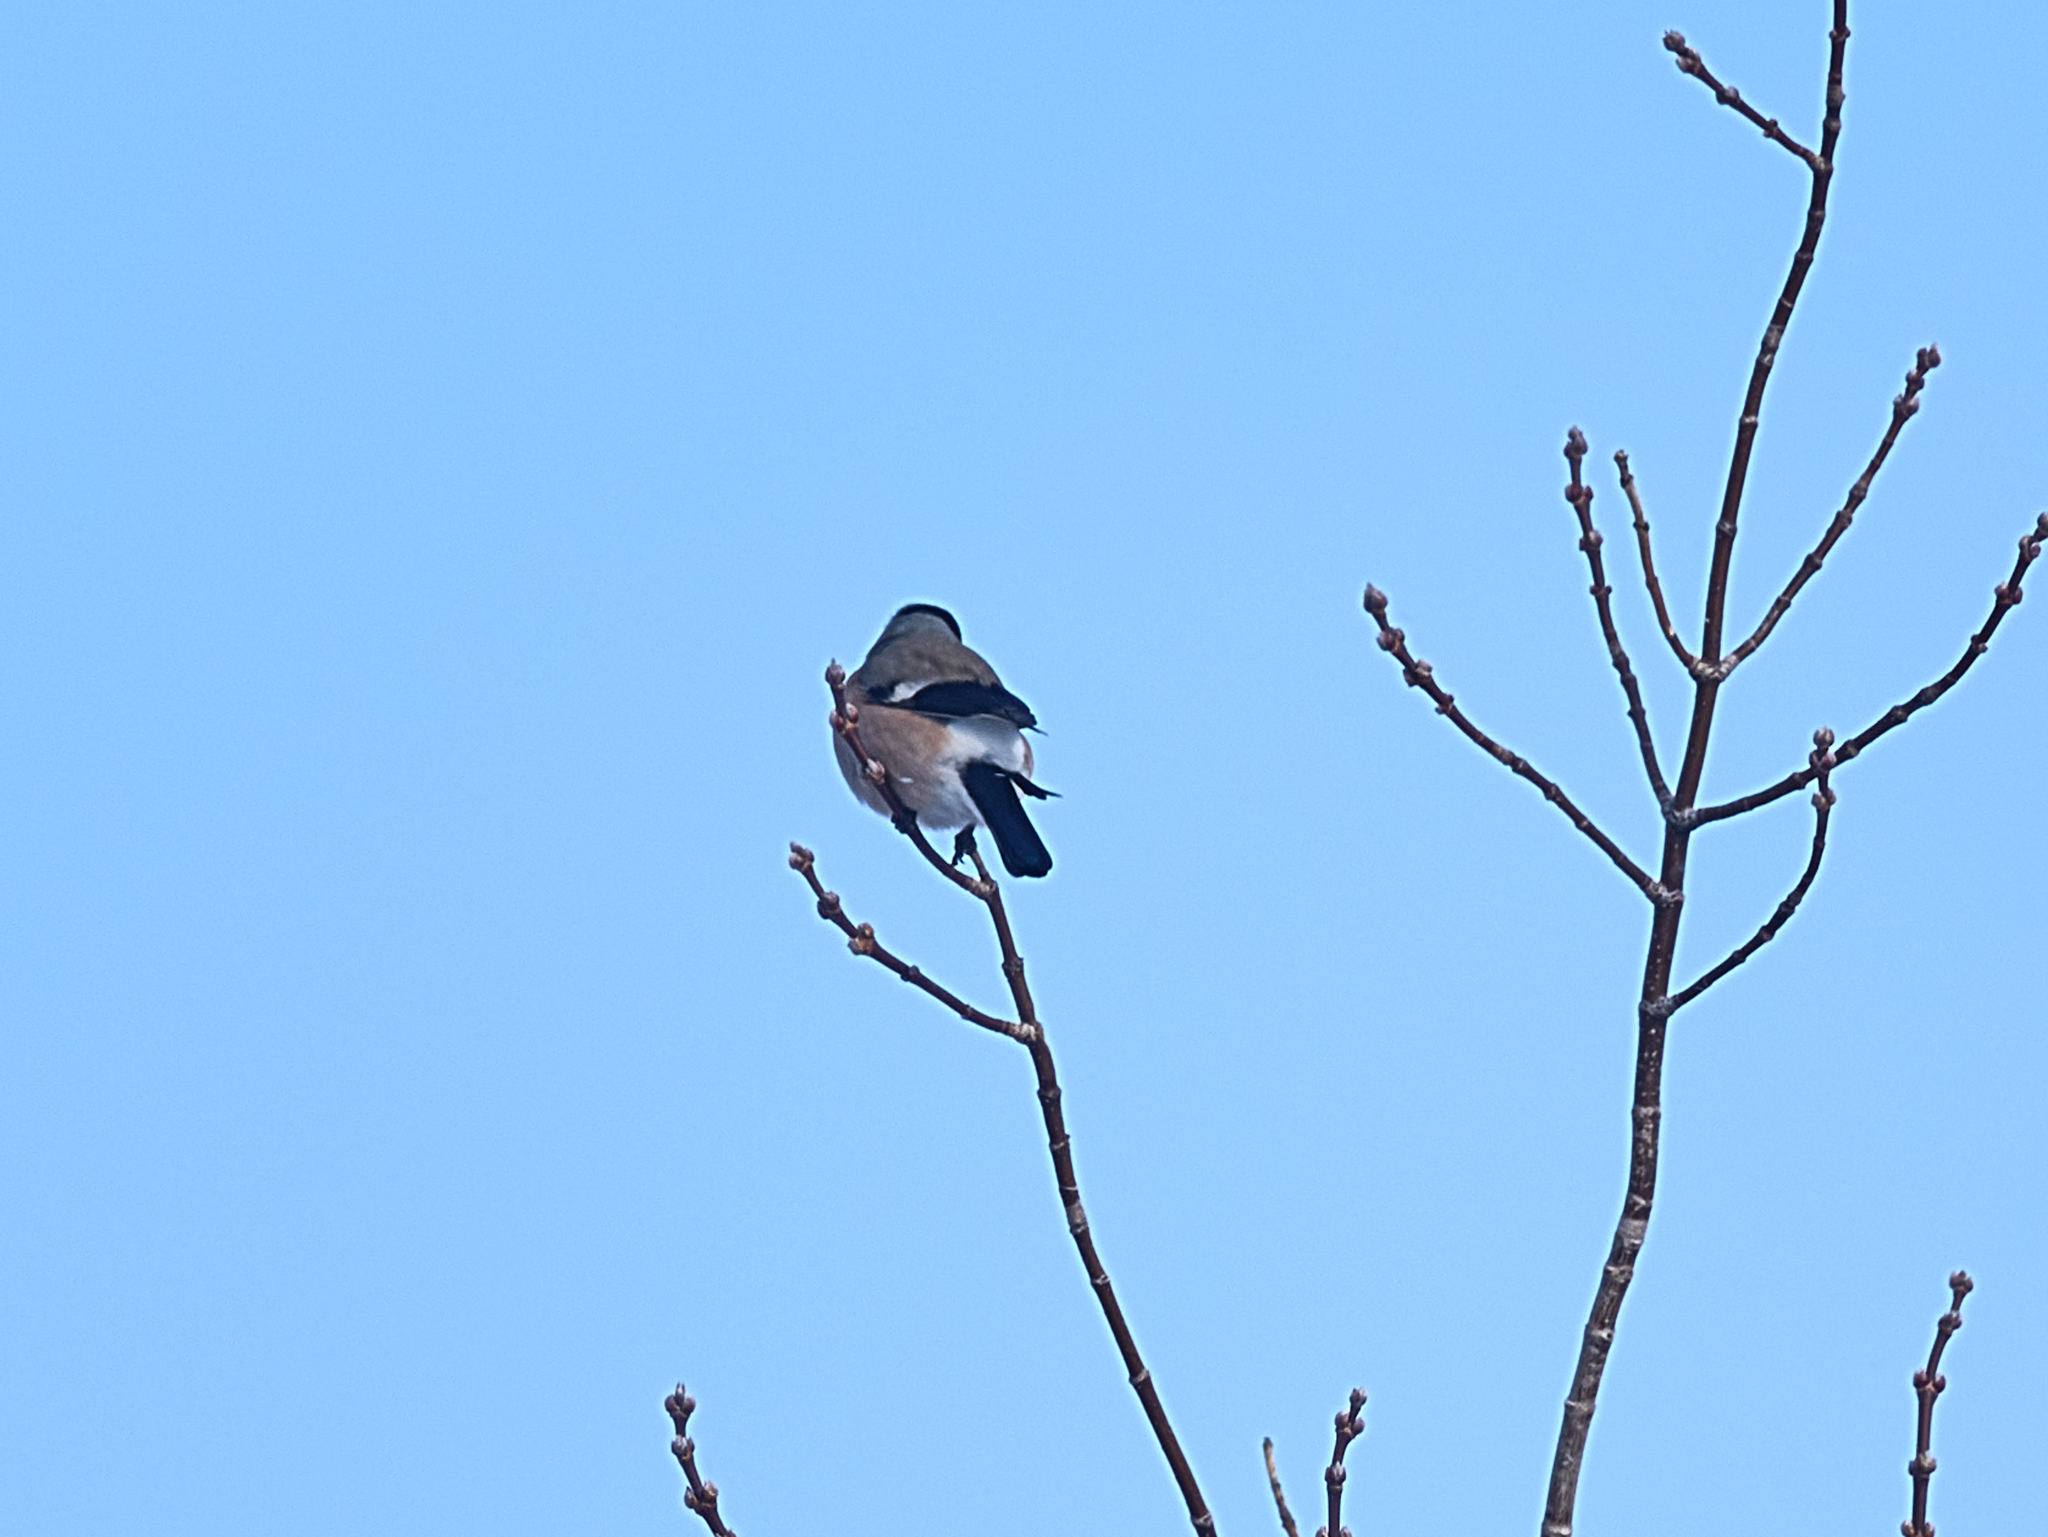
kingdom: Animalia
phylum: Chordata
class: Aves
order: Passeriformes
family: Fringillidae
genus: Pyrrhula
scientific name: Pyrrhula pyrrhula
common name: Eurasian bullfinch
